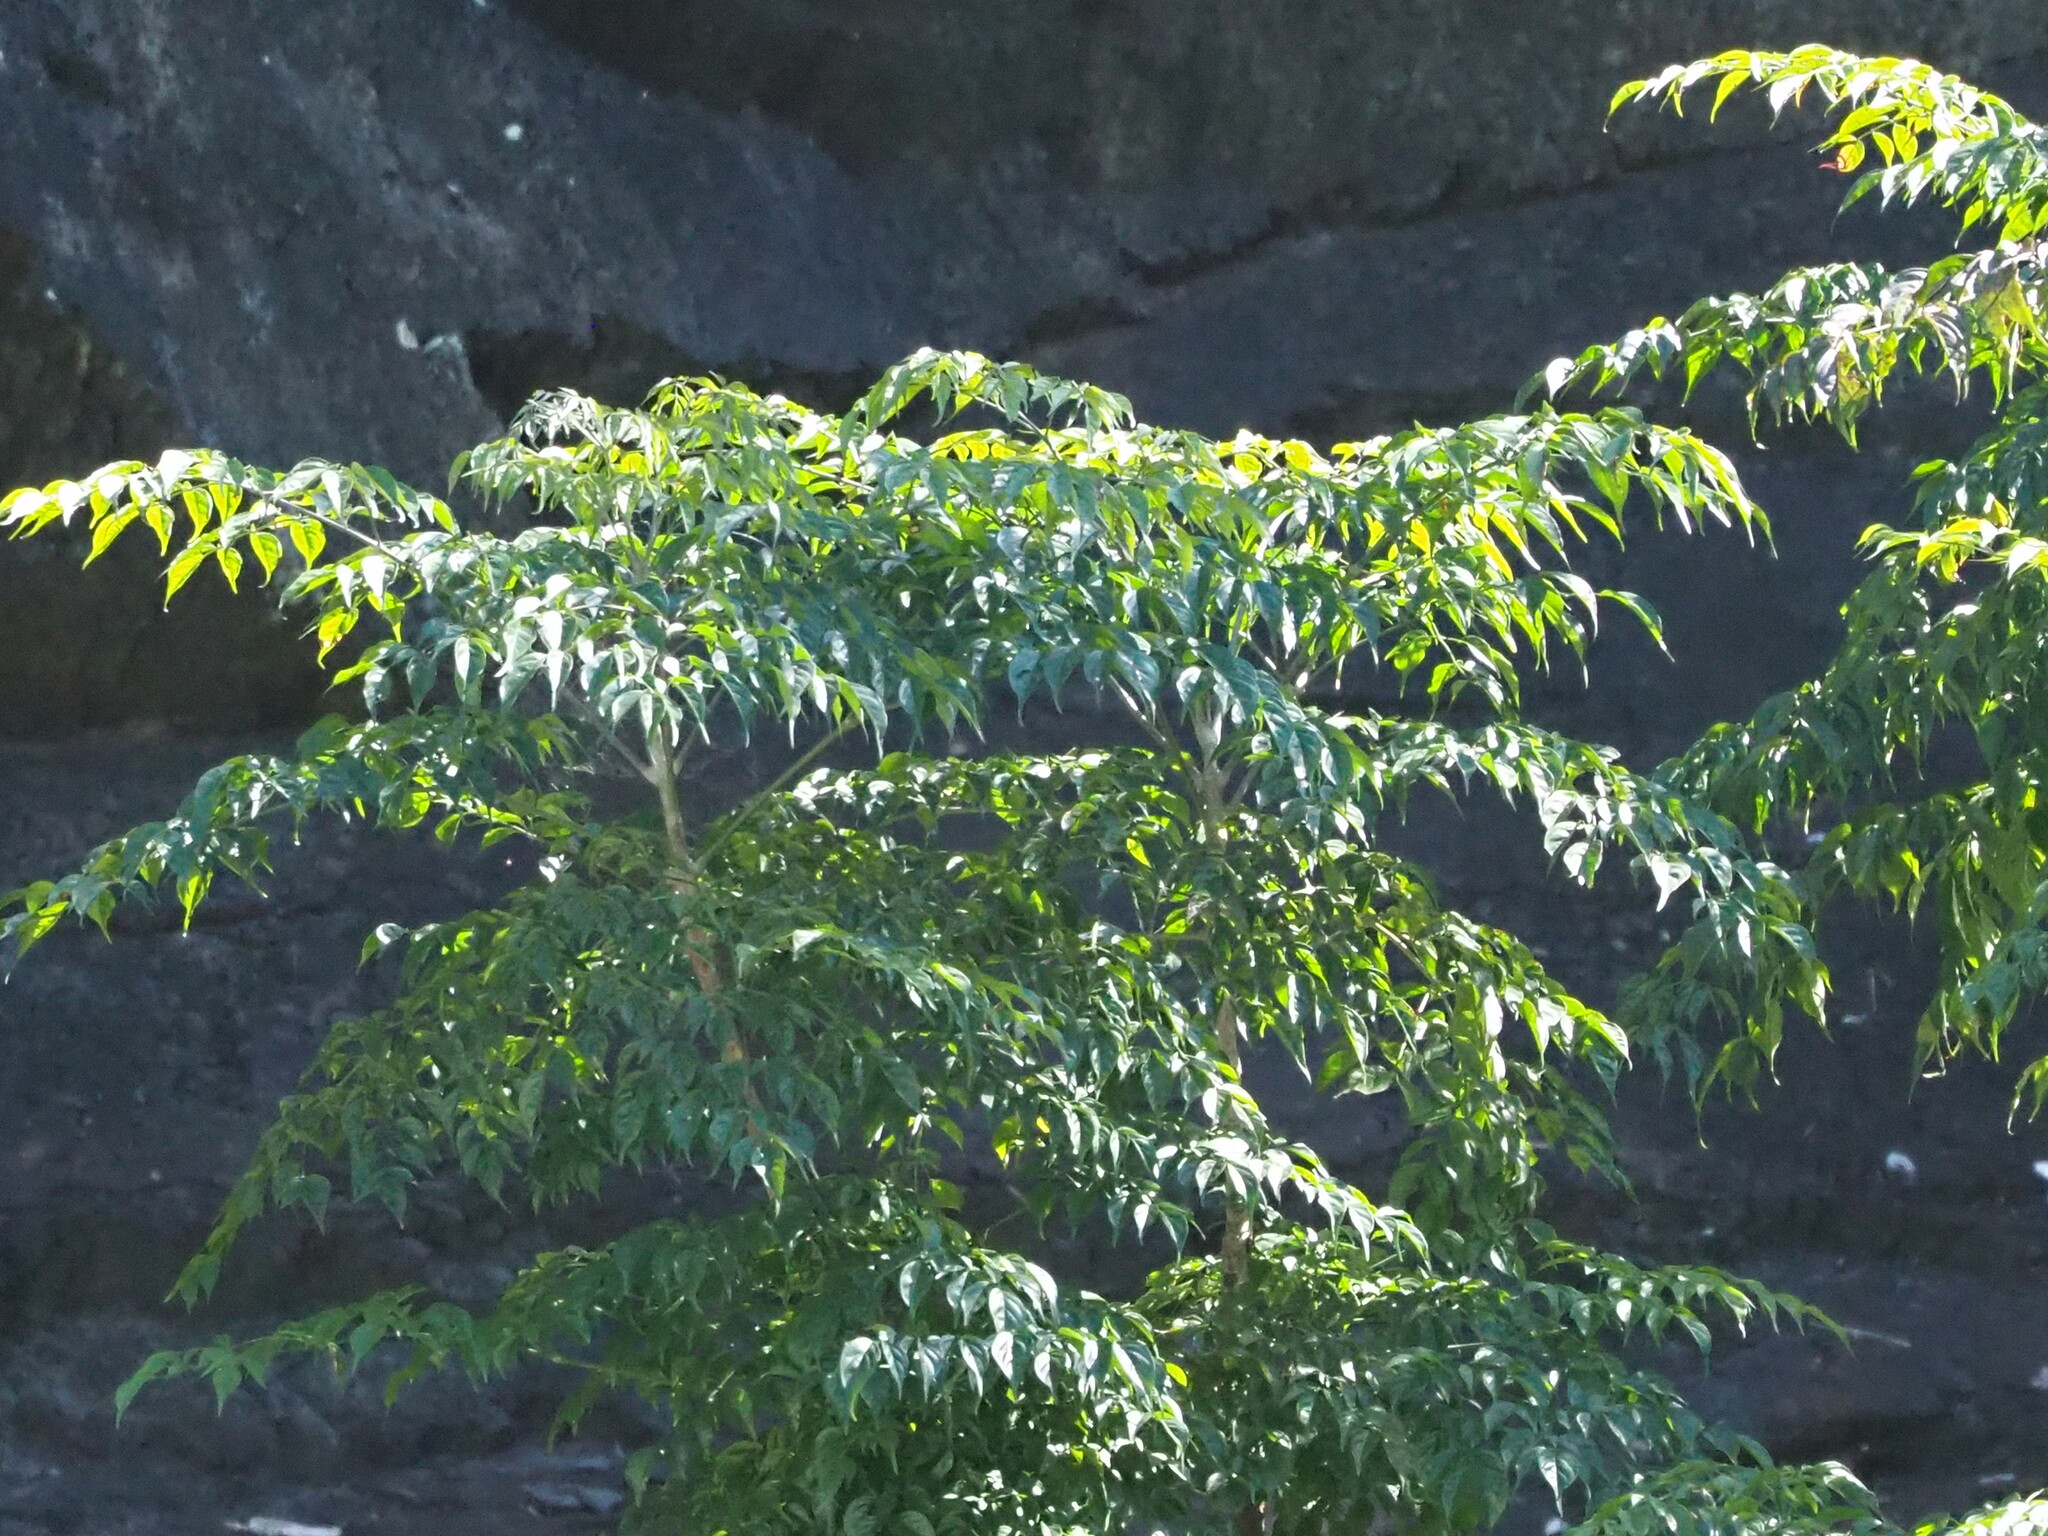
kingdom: Plantae
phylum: Tracheophyta
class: Magnoliopsida
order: Lamiales
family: Bignoniaceae
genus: Radermachera
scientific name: Radermachera sinica
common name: China doll plant
